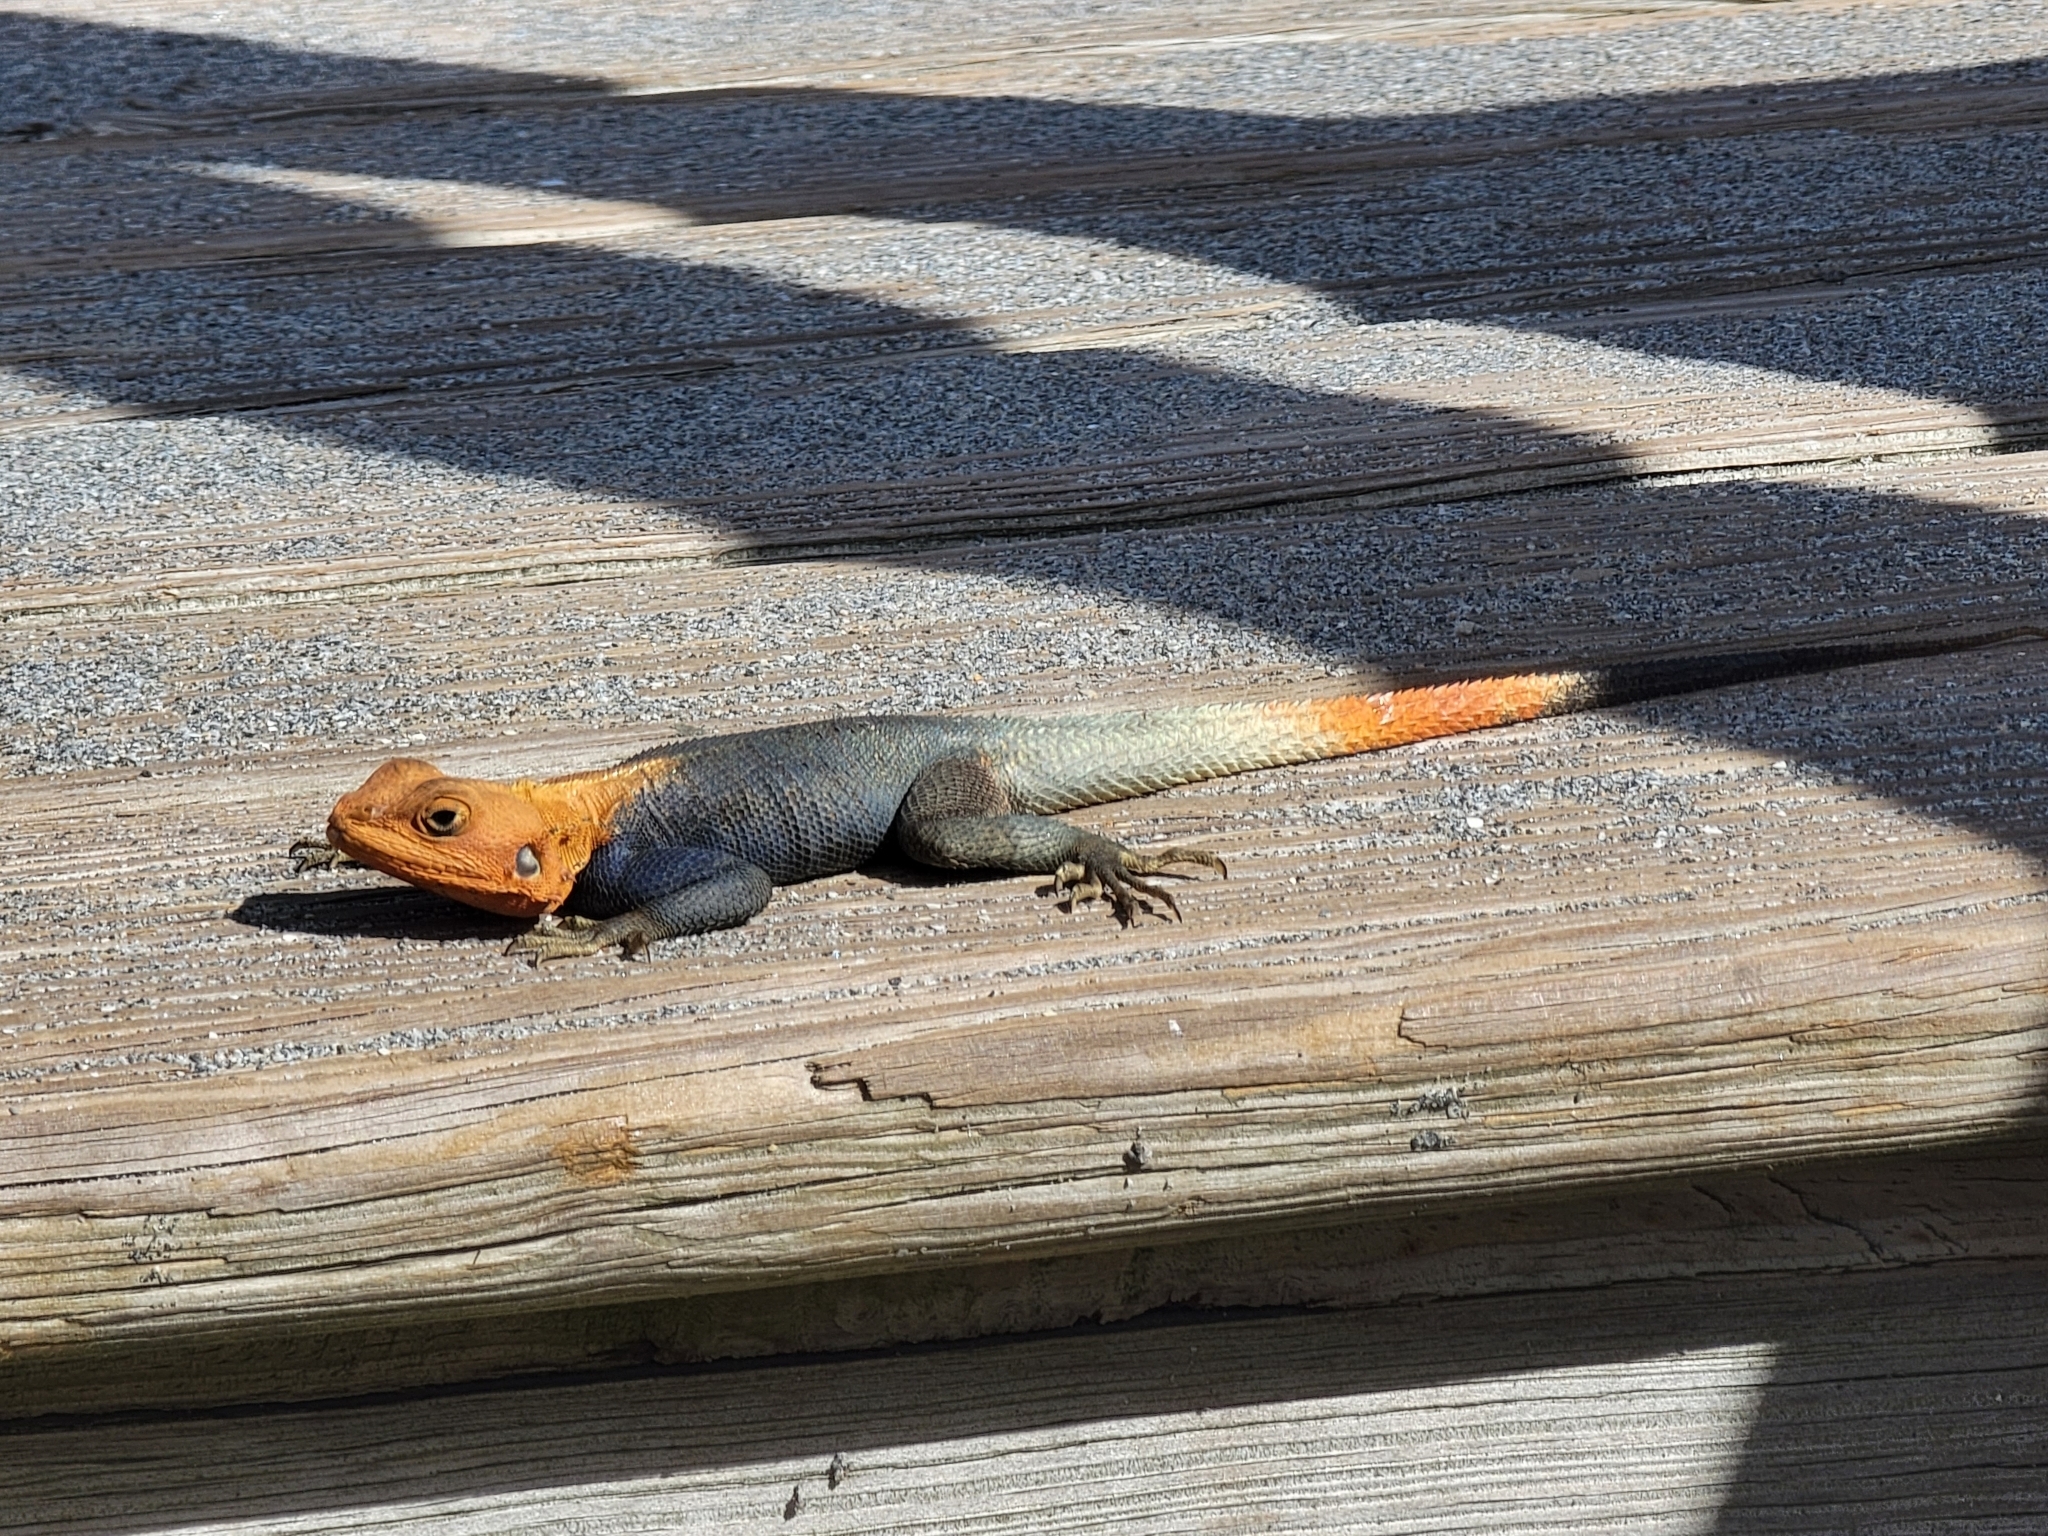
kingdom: Animalia
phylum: Chordata
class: Squamata
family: Agamidae
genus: Agama
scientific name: Agama picticauda
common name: Red-headed agama
